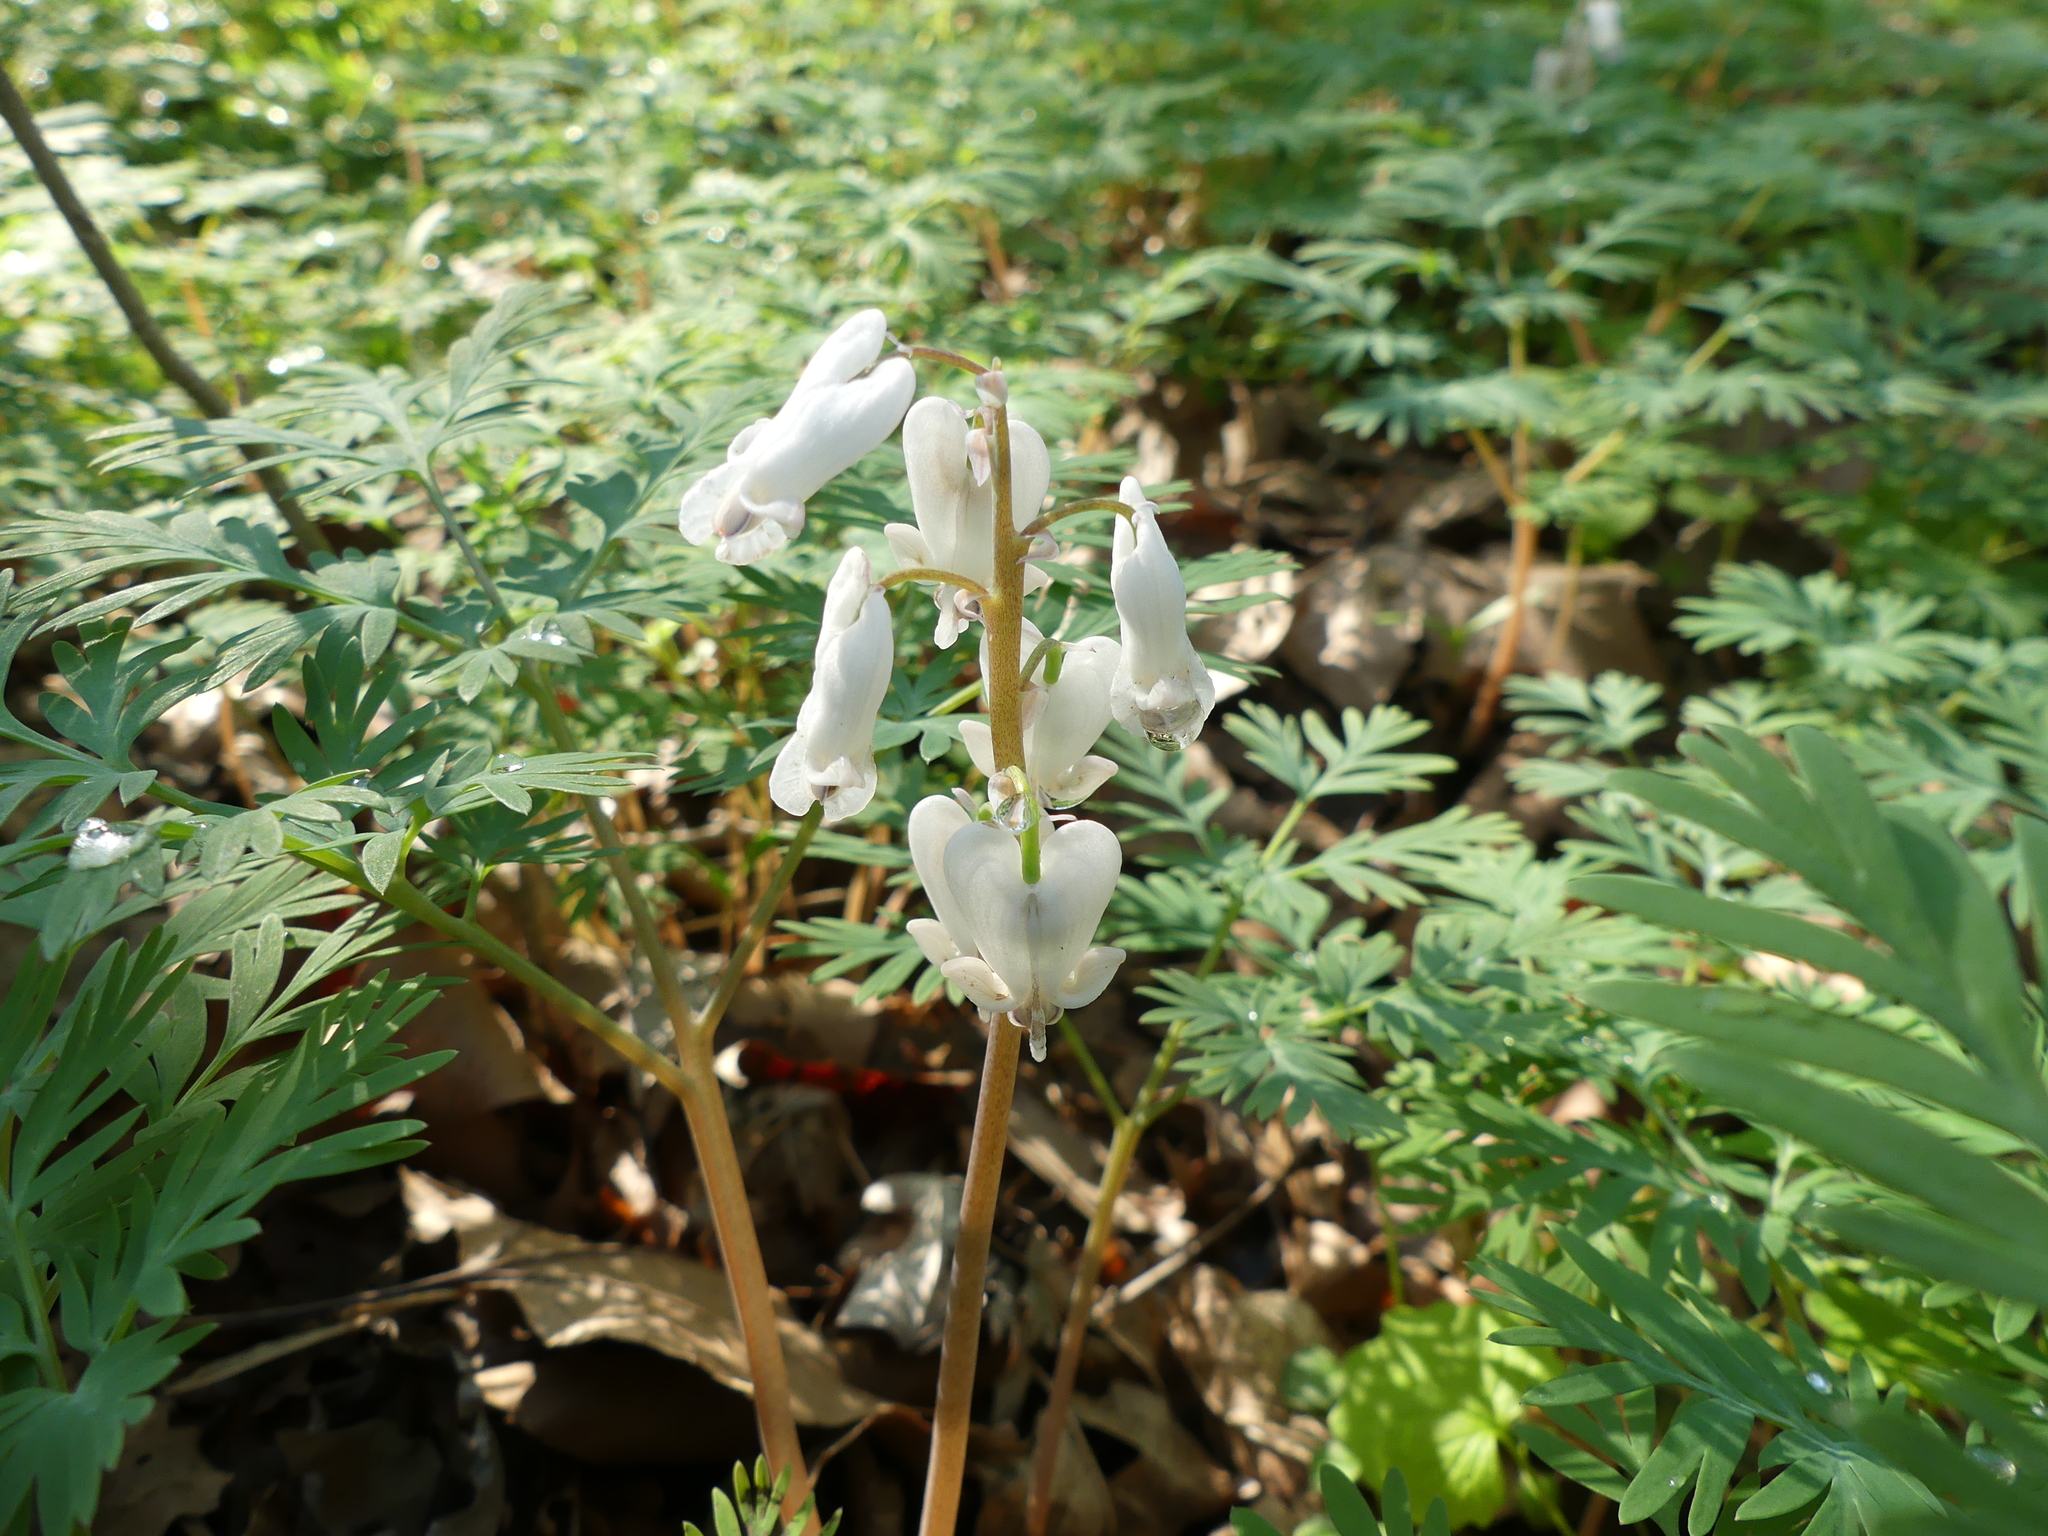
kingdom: Plantae
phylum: Tracheophyta
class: Magnoliopsida
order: Ranunculales
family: Papaveraceae
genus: Dicentra
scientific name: Dicentra canadensis
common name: Squirrel-corn
